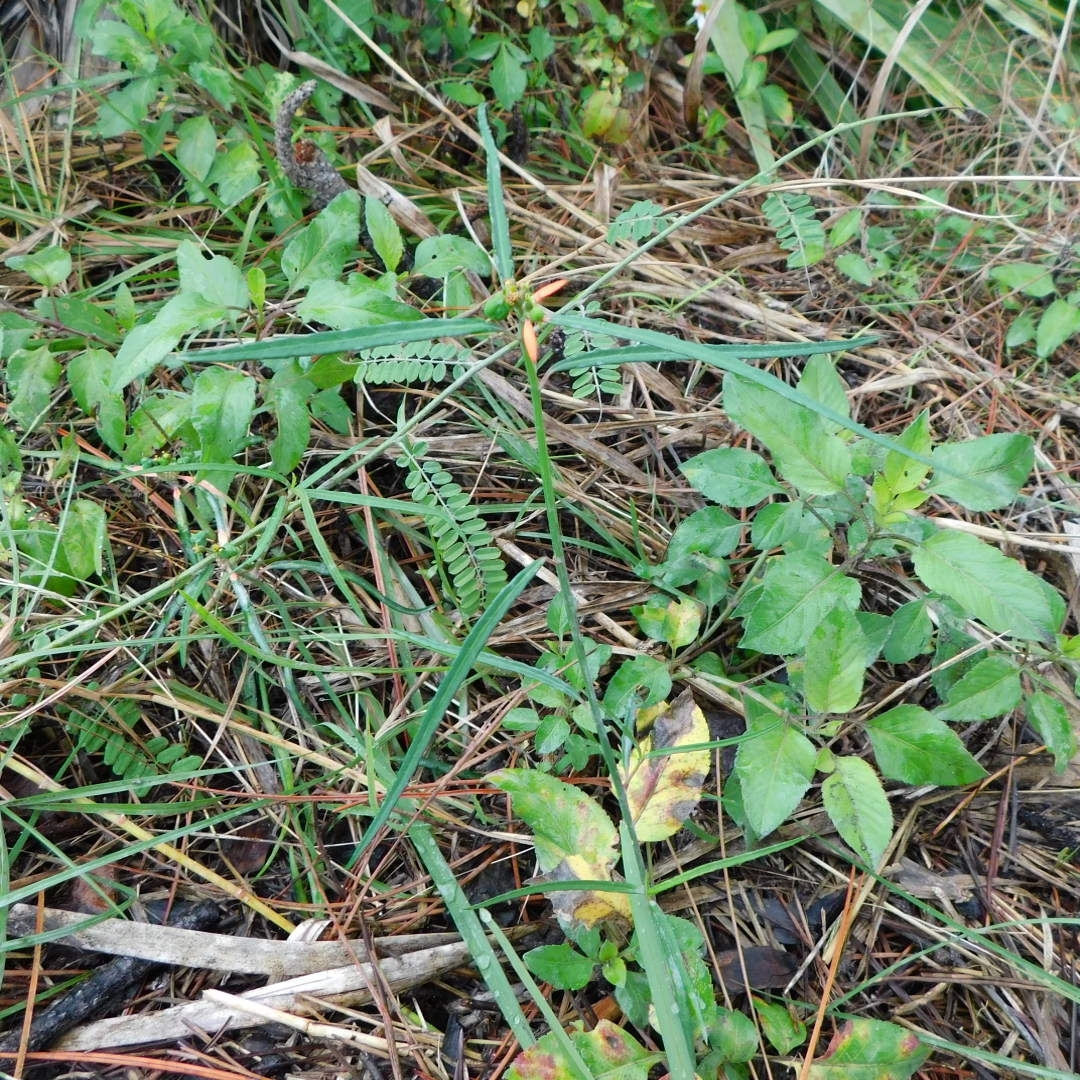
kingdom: Plantae
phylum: Tracheophyta
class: Magnoliopsida
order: Malpighiales
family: Euphorbiaceae
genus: Euphorbia
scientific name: Euphorbia heterophylla
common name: Mexican fireplant
